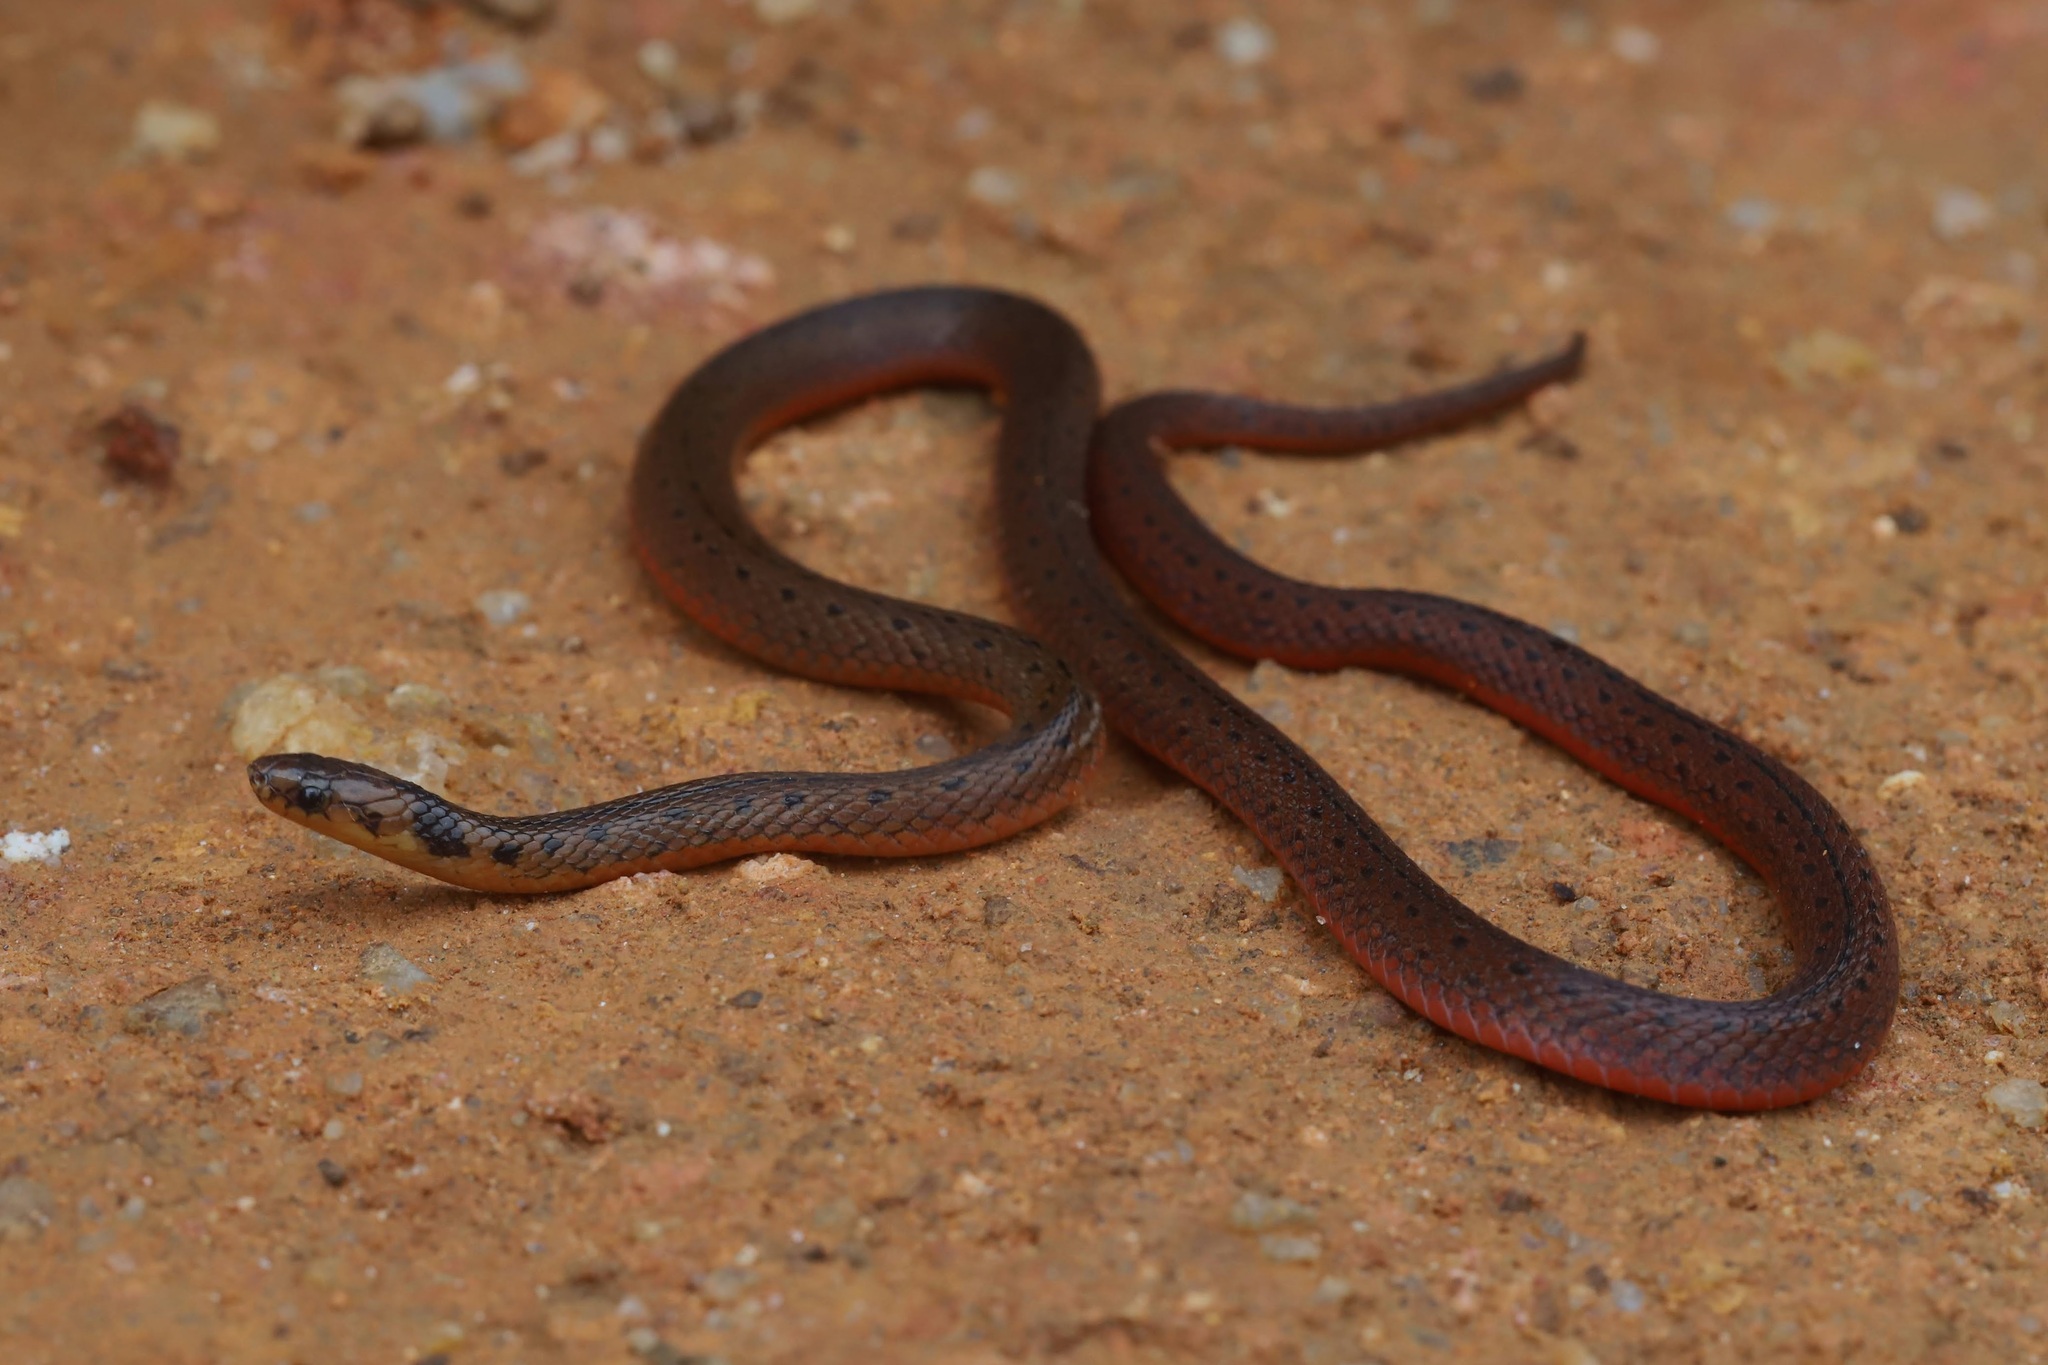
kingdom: Animalia
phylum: Chordata
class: Squamata
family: Colubridae
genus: Aspidura
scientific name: Aspidura ceylonensis
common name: Ceylon keelback
